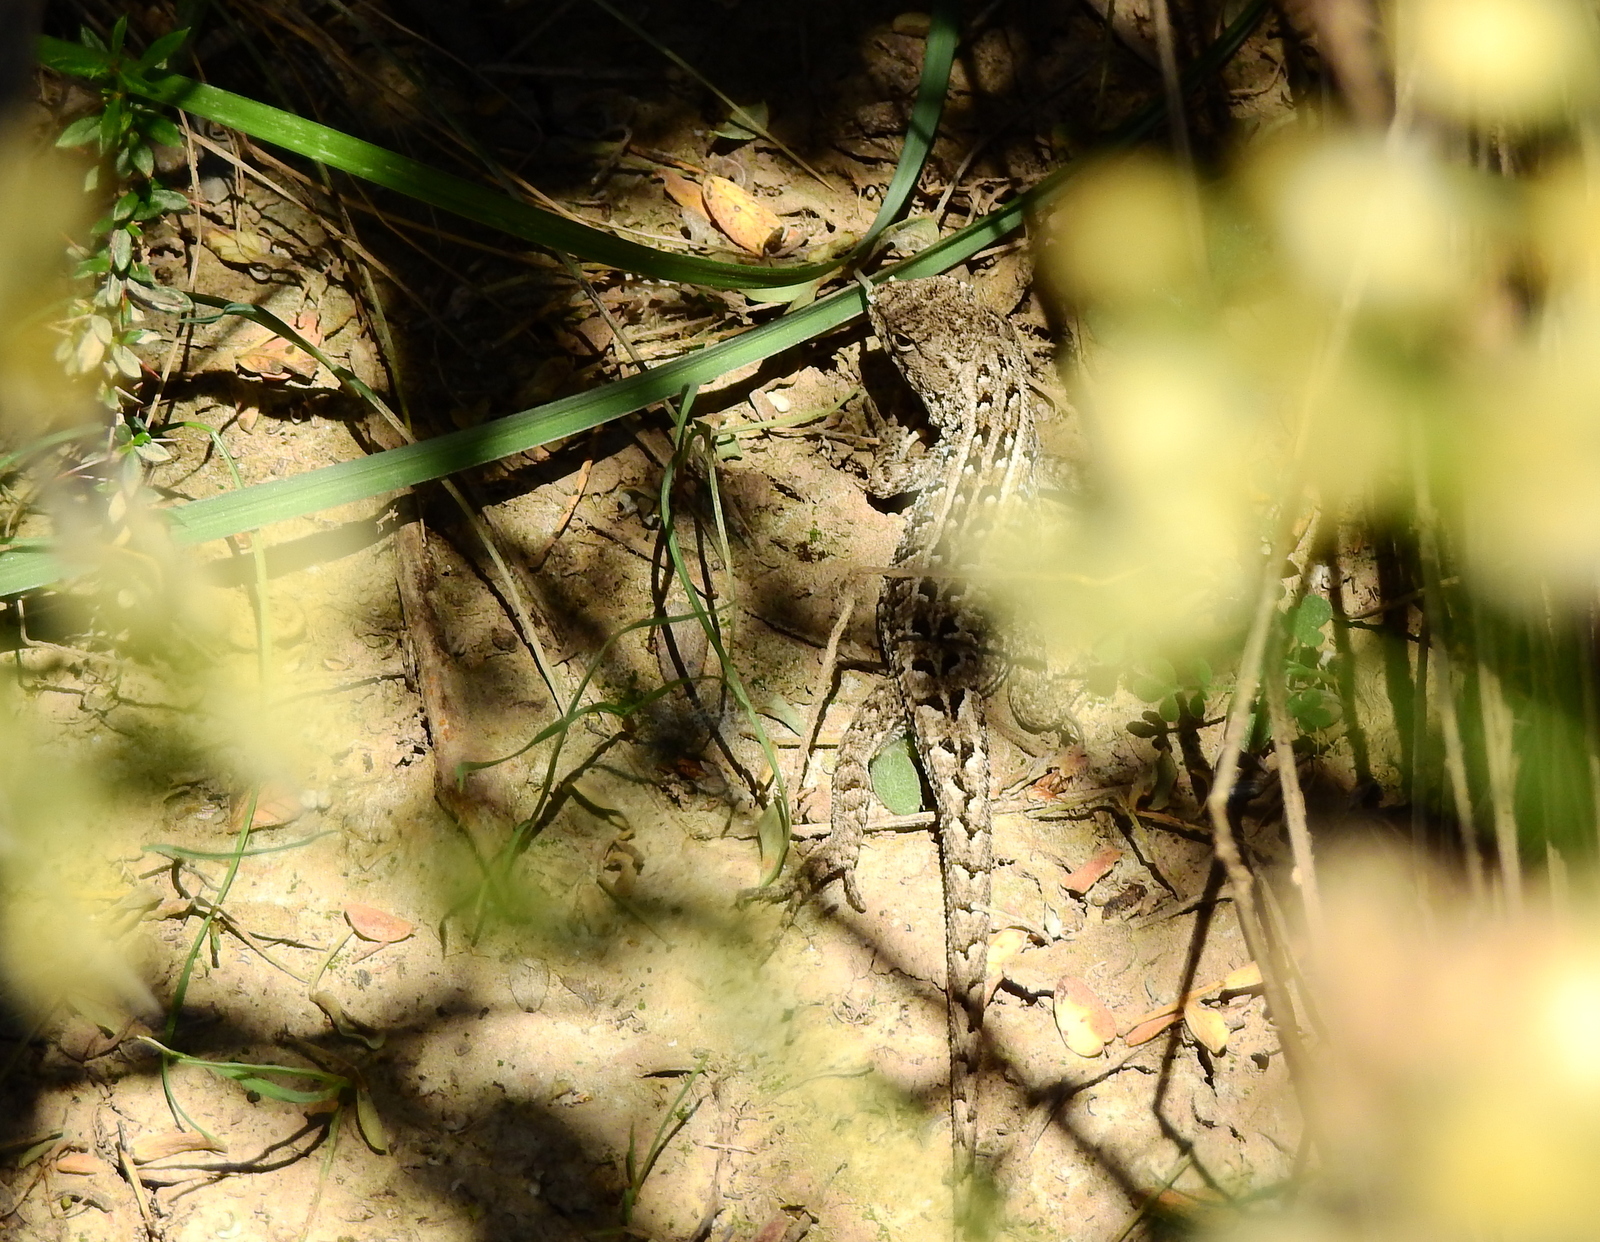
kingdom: Animalia
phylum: Chordata
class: Squamata
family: Liolaemidae
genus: Liolaemus
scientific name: Liolaemus wiegmannii
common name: Wiegmann's tree iguana
